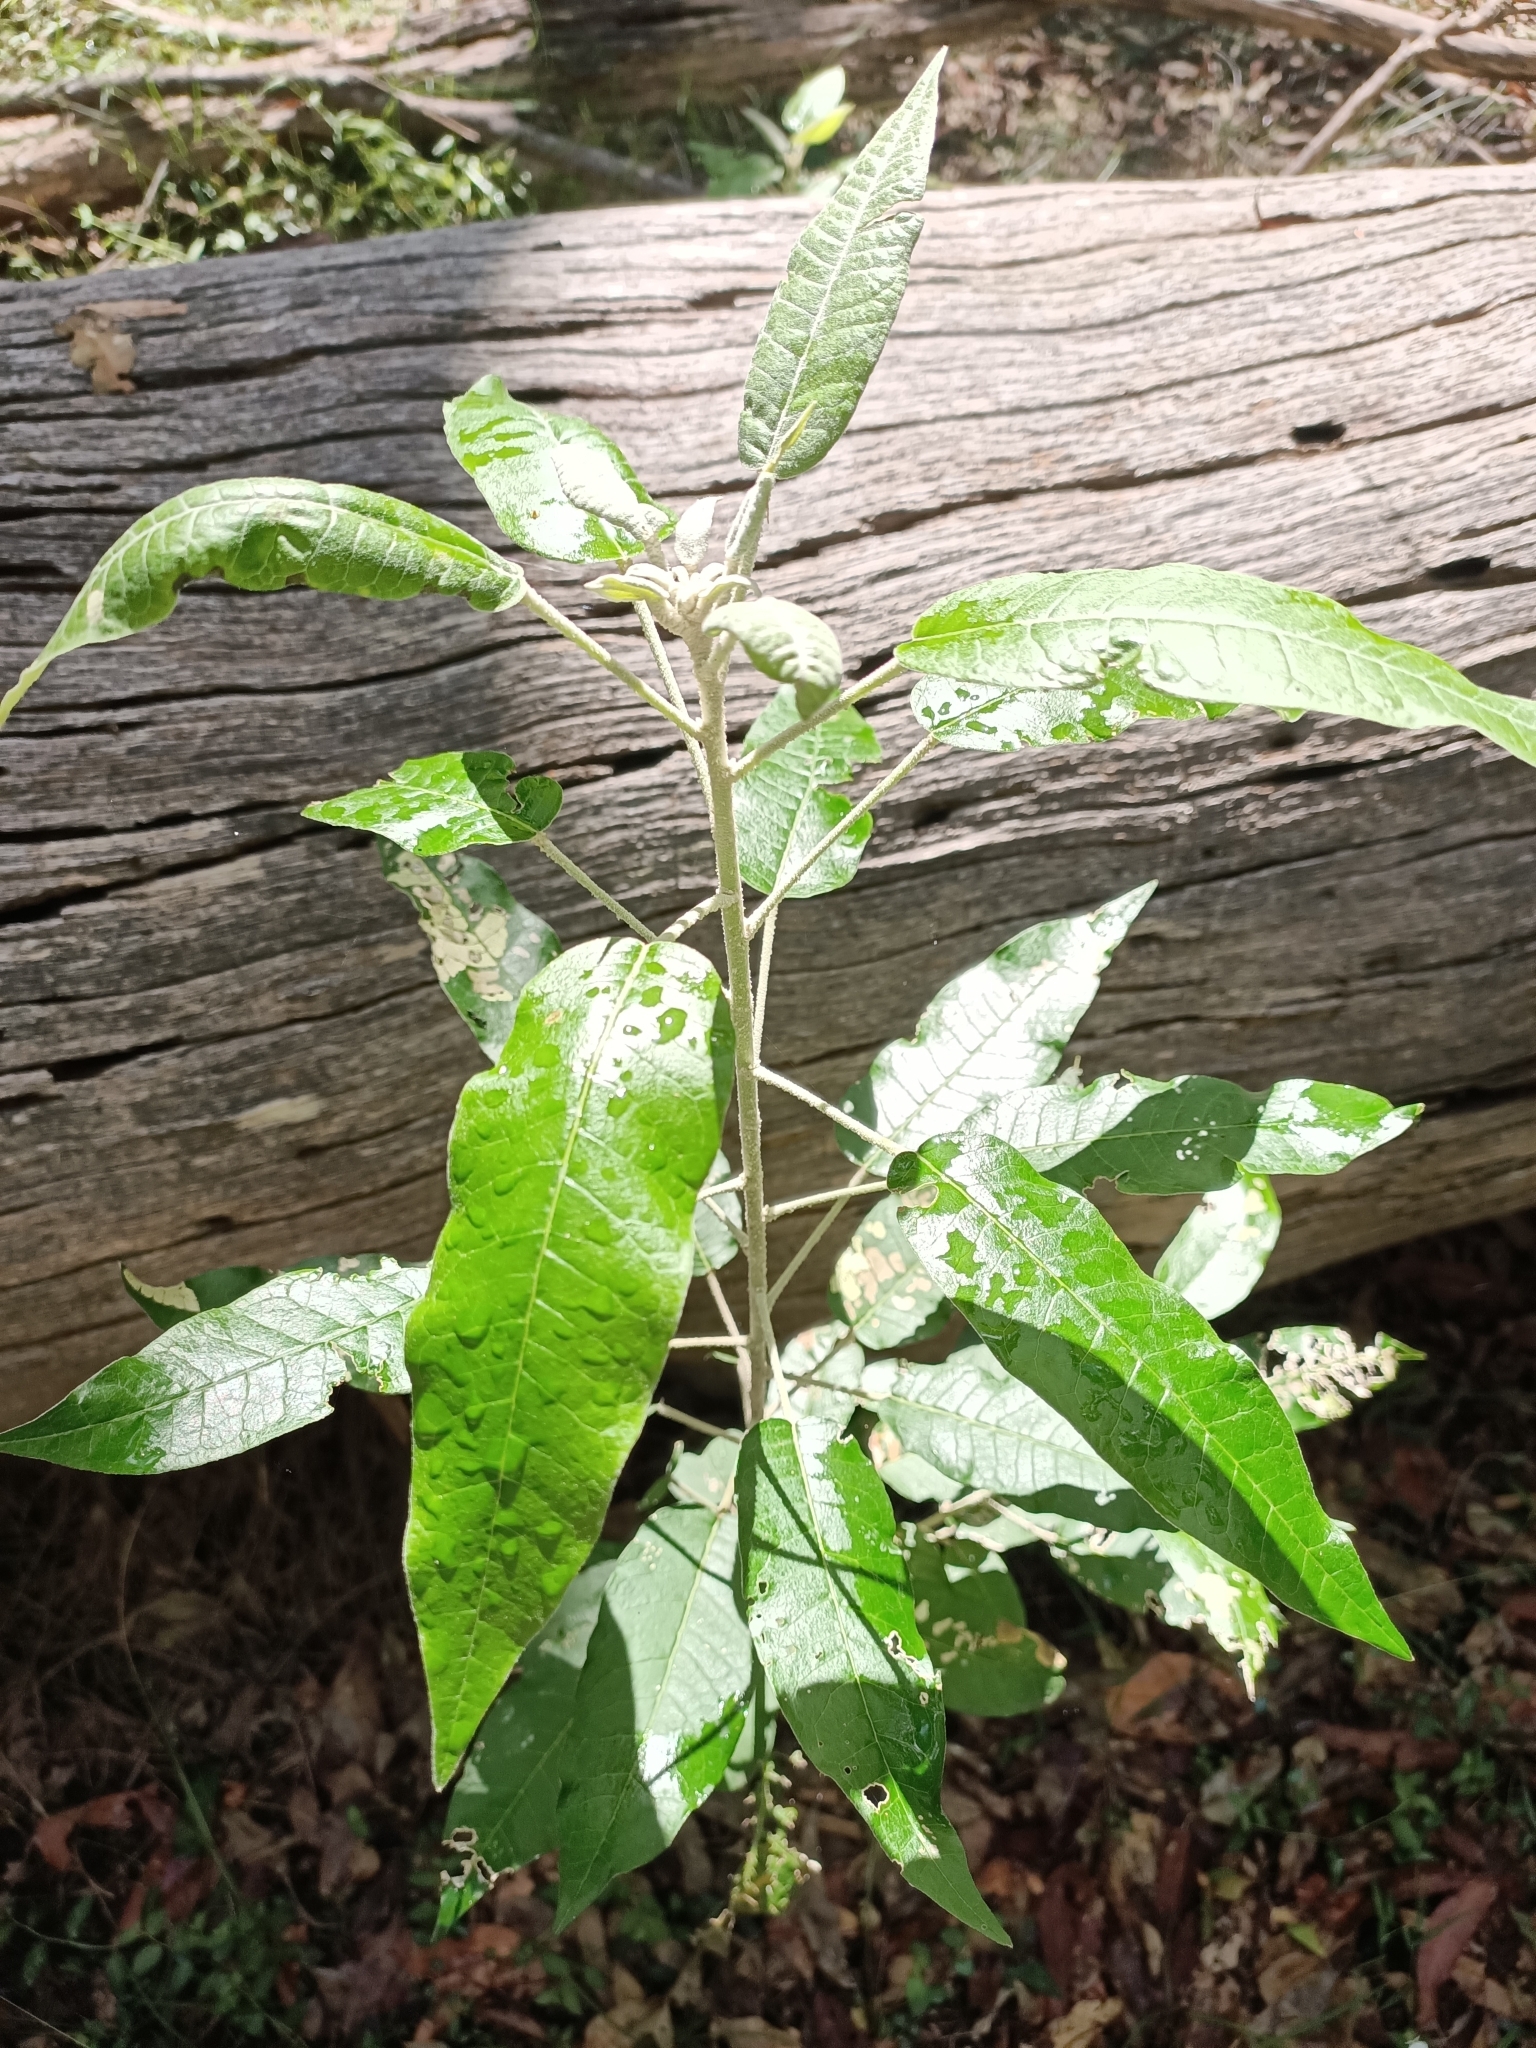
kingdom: Plantae
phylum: Tracheophyta
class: Magnoliopsida
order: Apiales
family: Araliaceae
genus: Astrotricha
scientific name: Astrotricha latifolia
